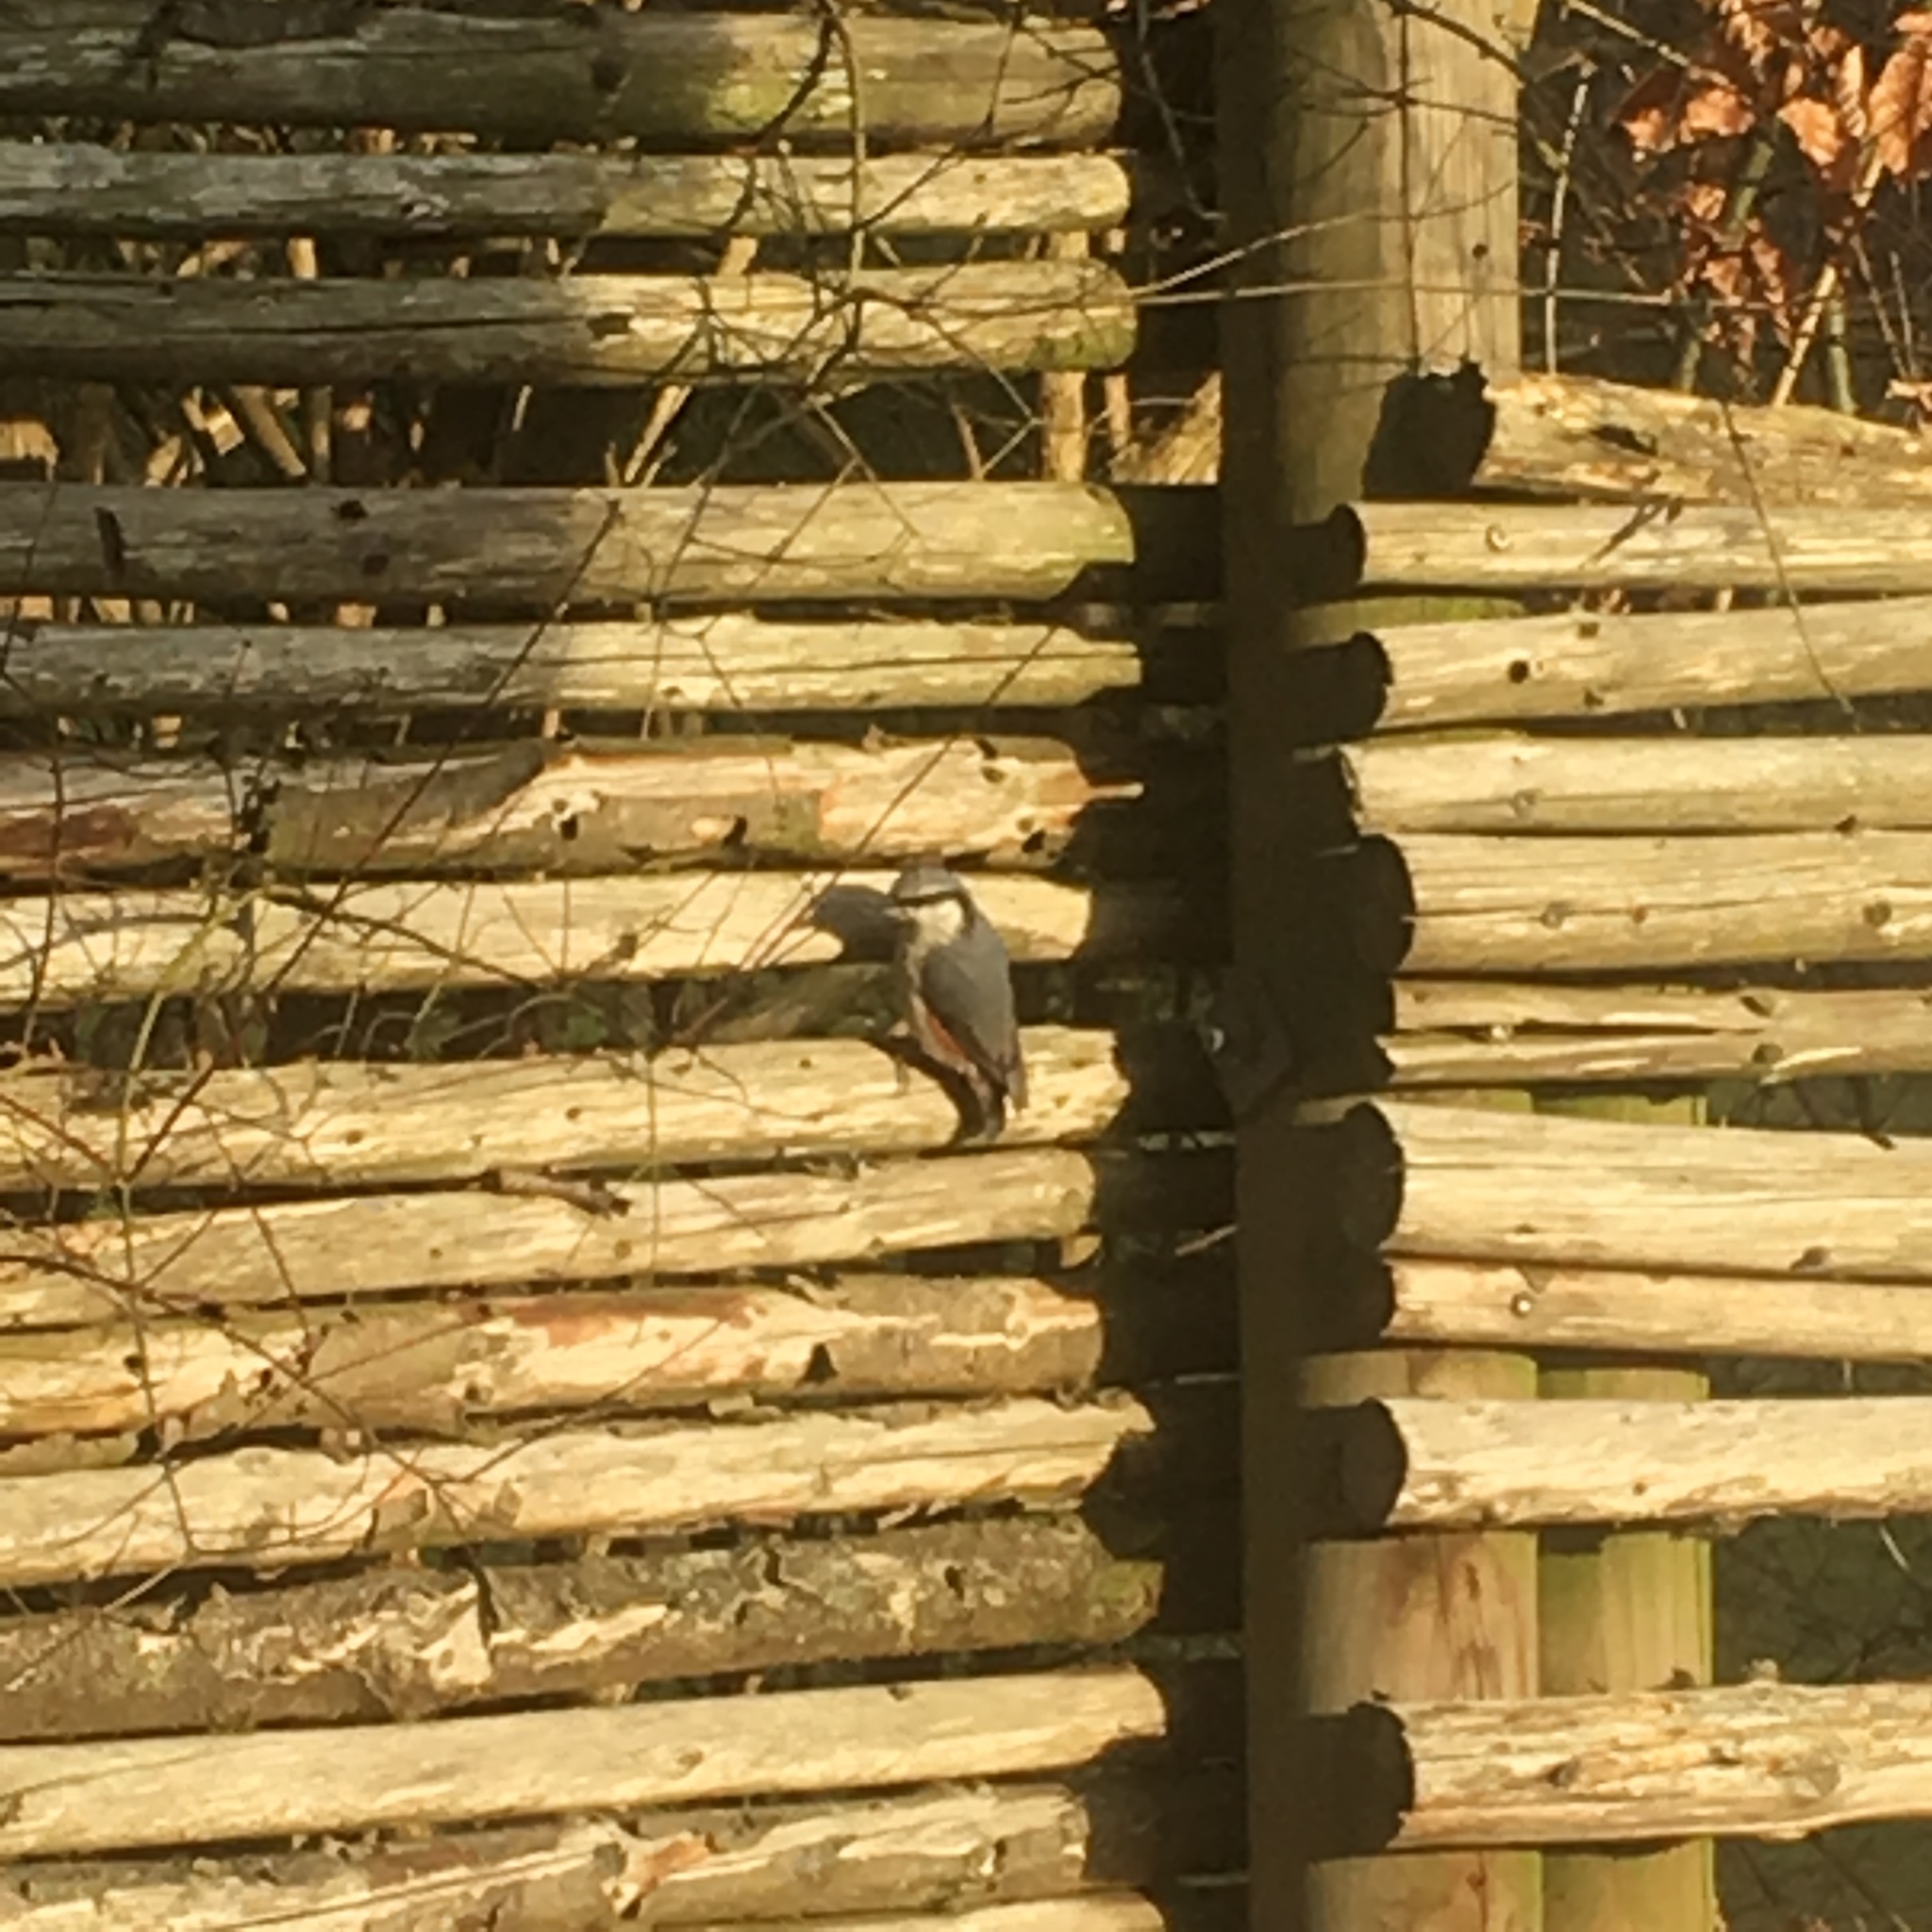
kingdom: Animalia
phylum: Chordata
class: Aves
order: Passeriformes
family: Sittidae
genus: Sitta
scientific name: Sitta europaea
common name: Eurasian nuthatch
